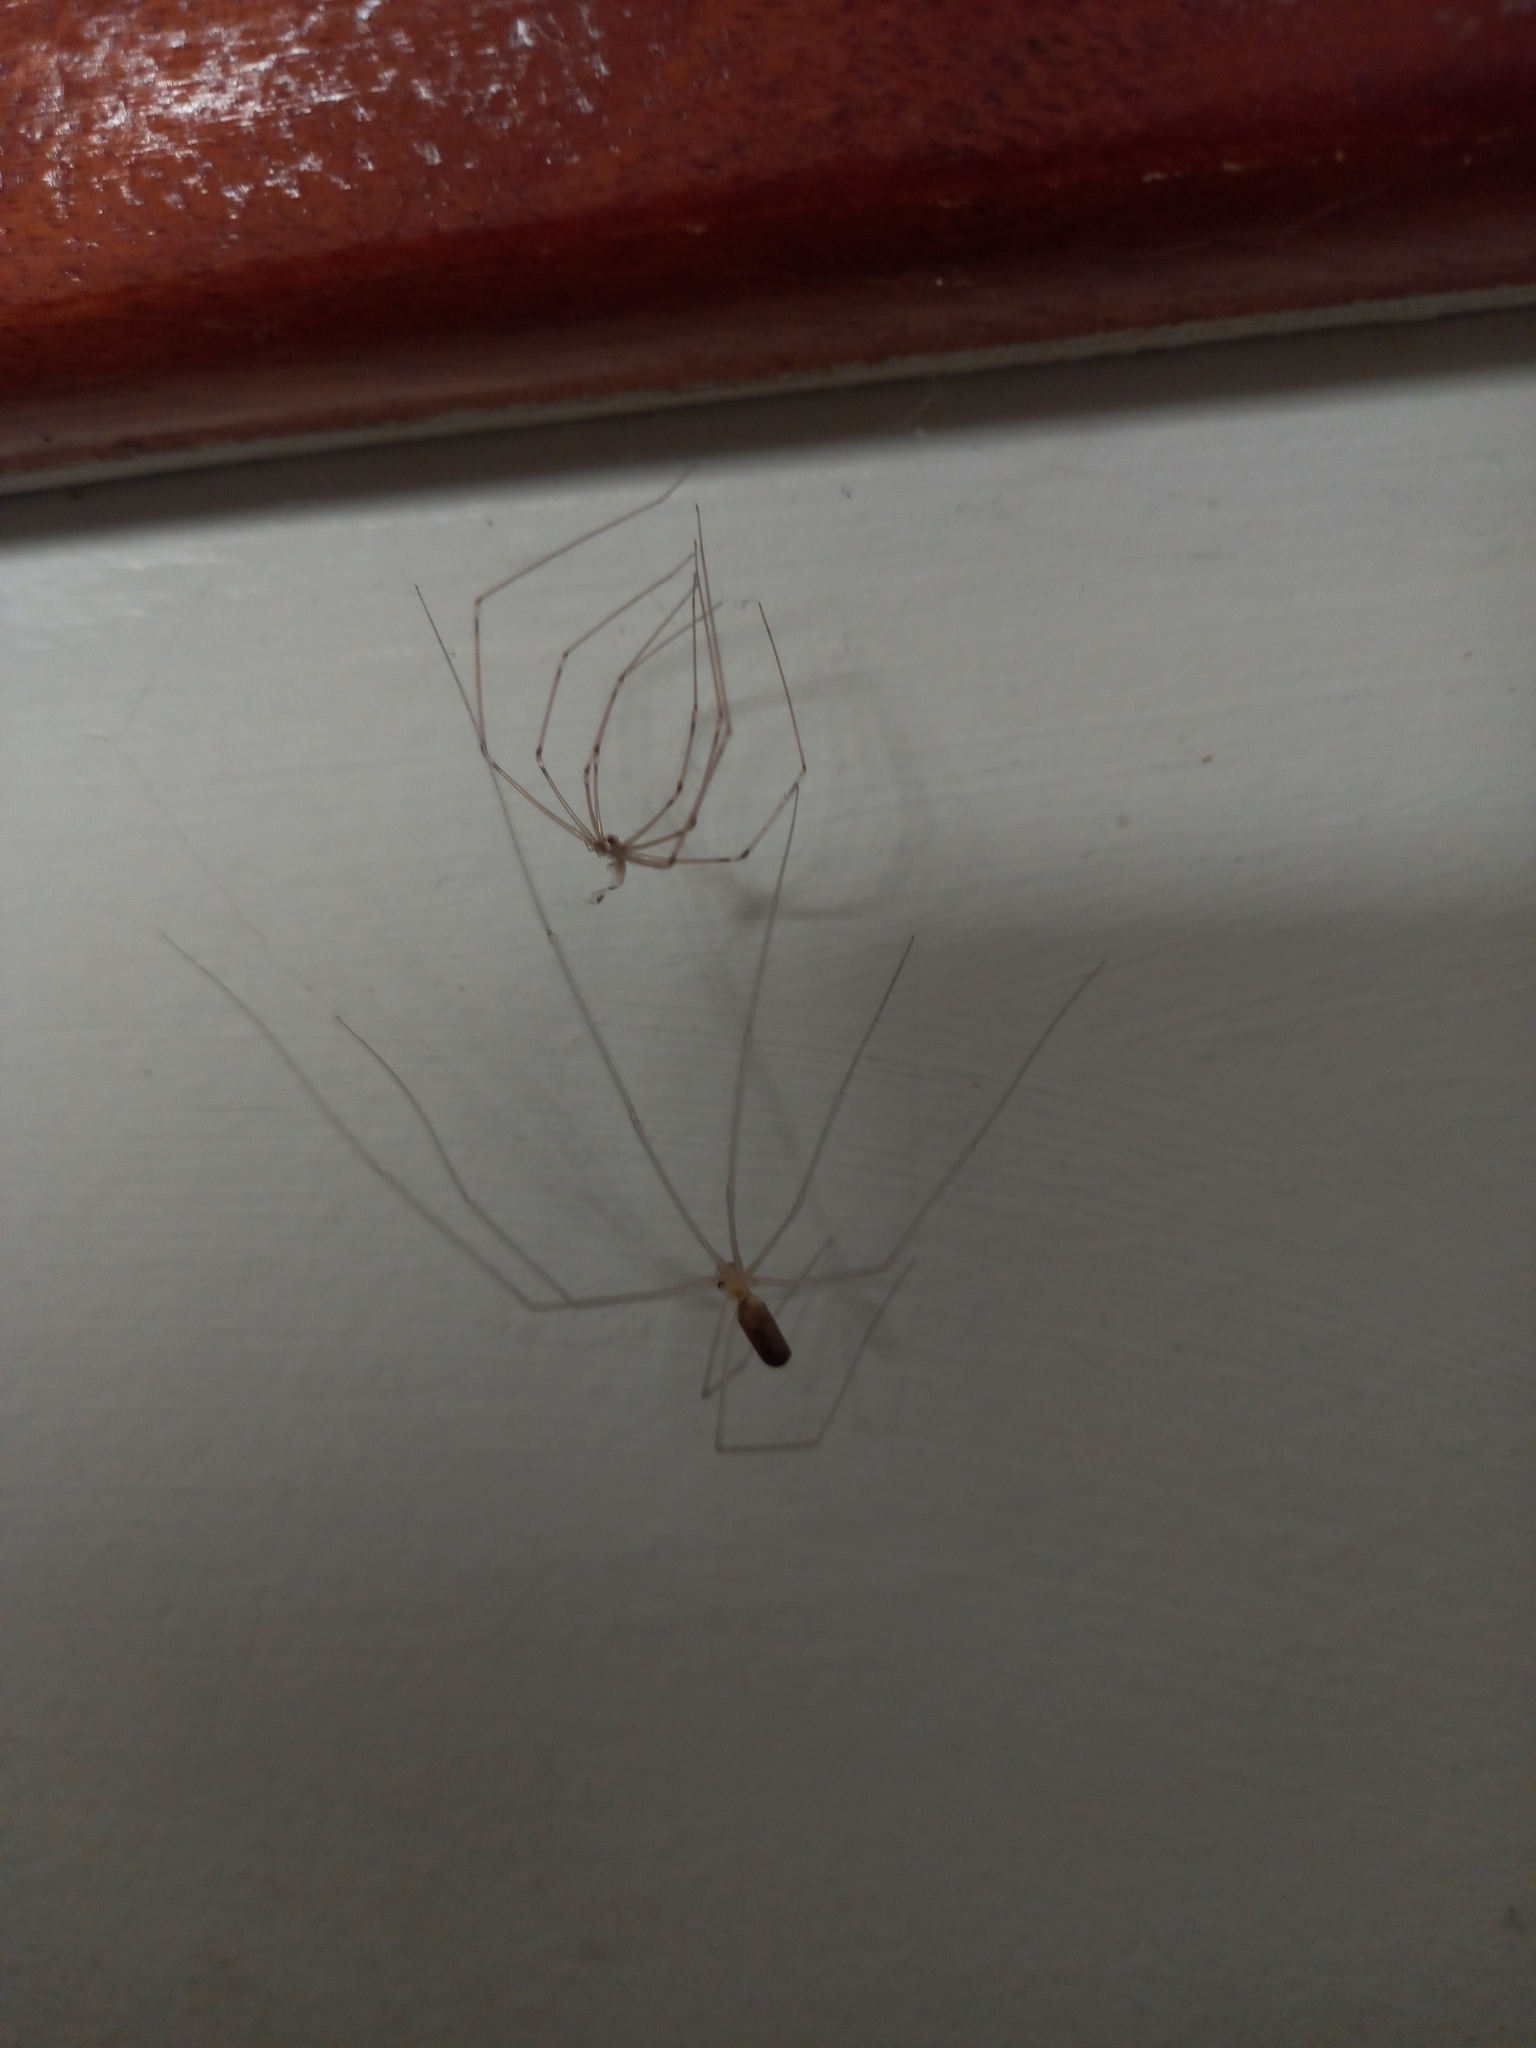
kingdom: Animalia
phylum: Arthropoda
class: Arachnida
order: Araneae
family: Pholcidae
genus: Pholcus
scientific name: Pholcus phalangioides
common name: Longbodied cellar spider
